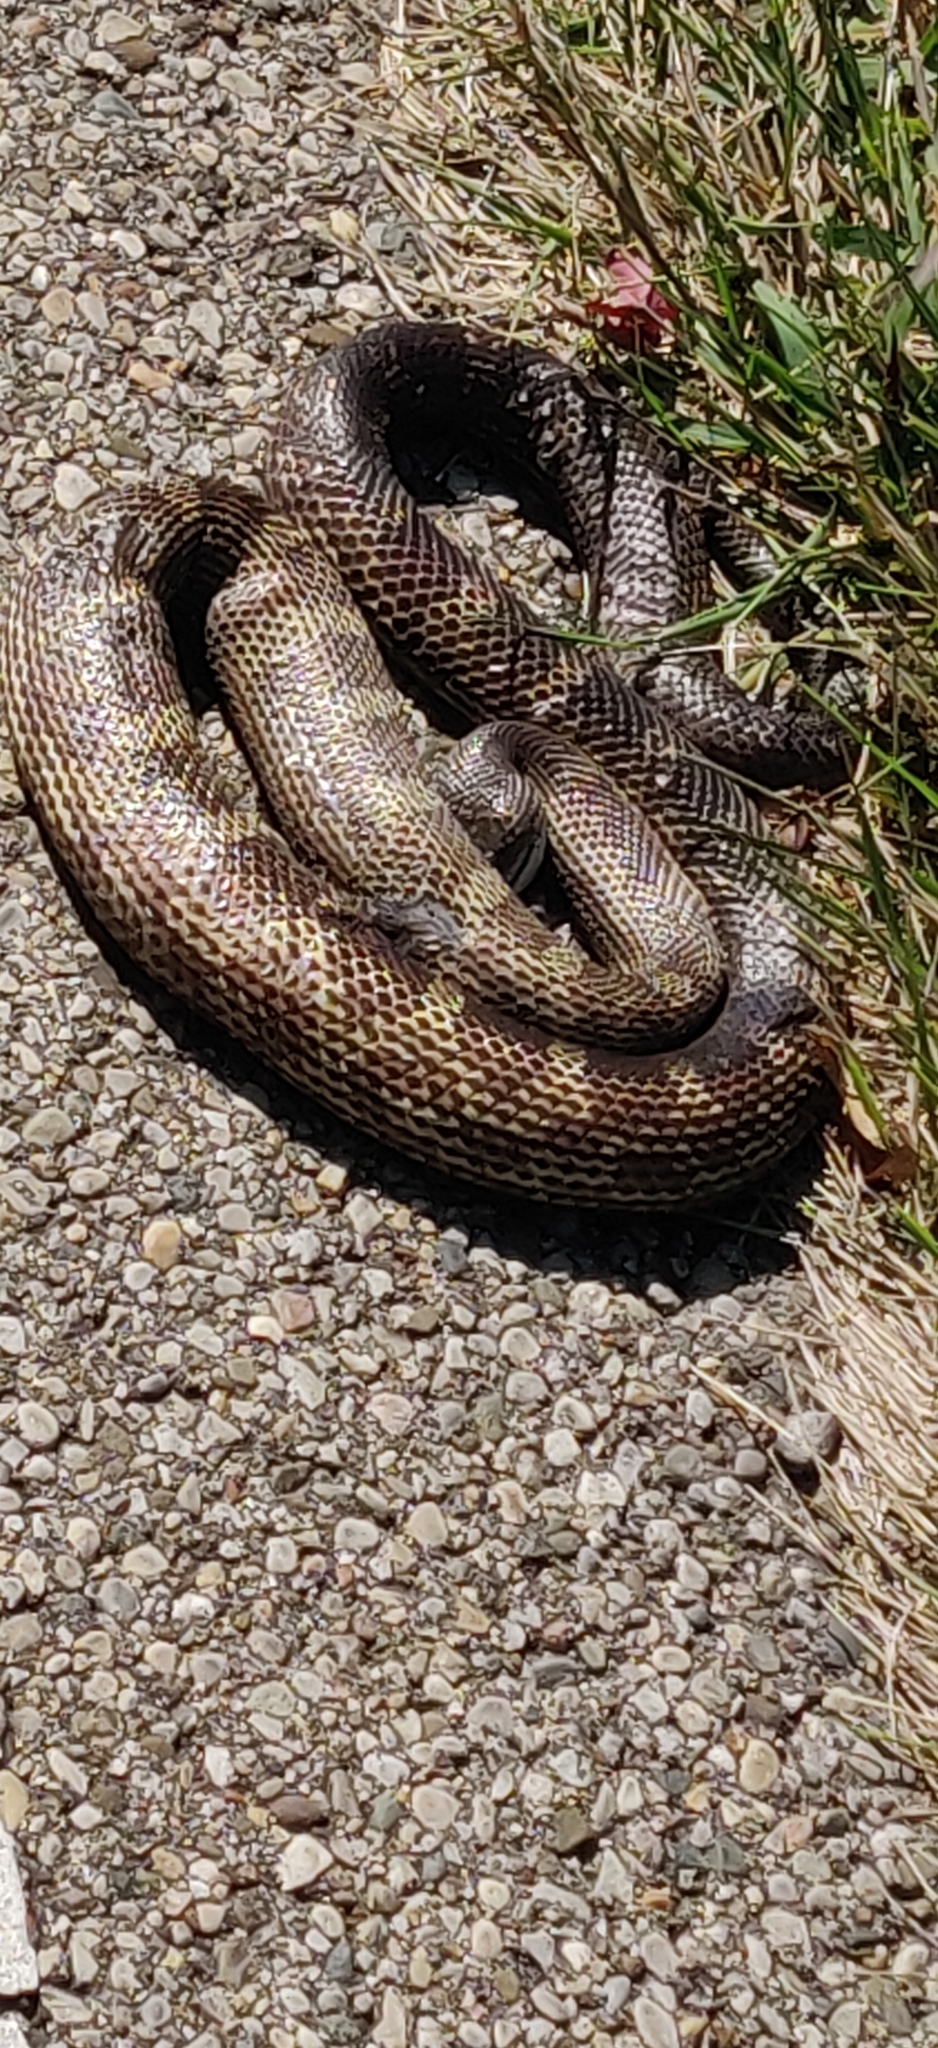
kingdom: Animalia
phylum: Chordata
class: Squamata
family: Colubridae
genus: Pantherophis
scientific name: Pantherophis spiloides
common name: Gray rat snake
